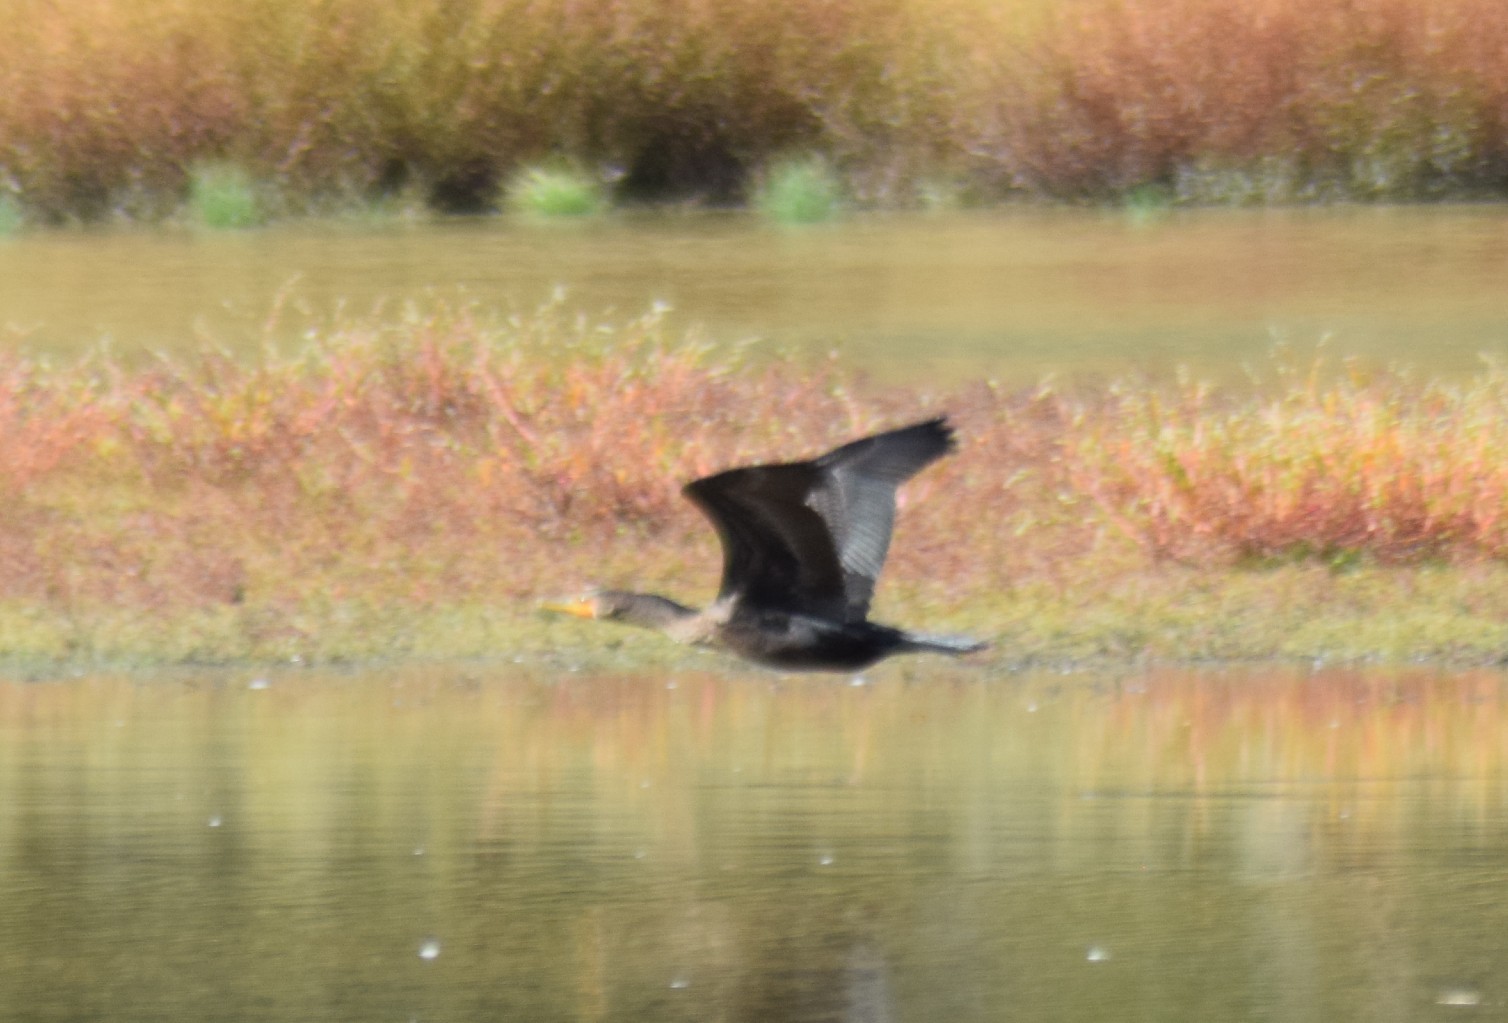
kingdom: Animalia
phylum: Chordata
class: Aves
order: Suliformes
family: Phalacrocoracidae
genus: Phalacrocorax
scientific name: Phalacrocorax auritus
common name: Double-crested cormorant
